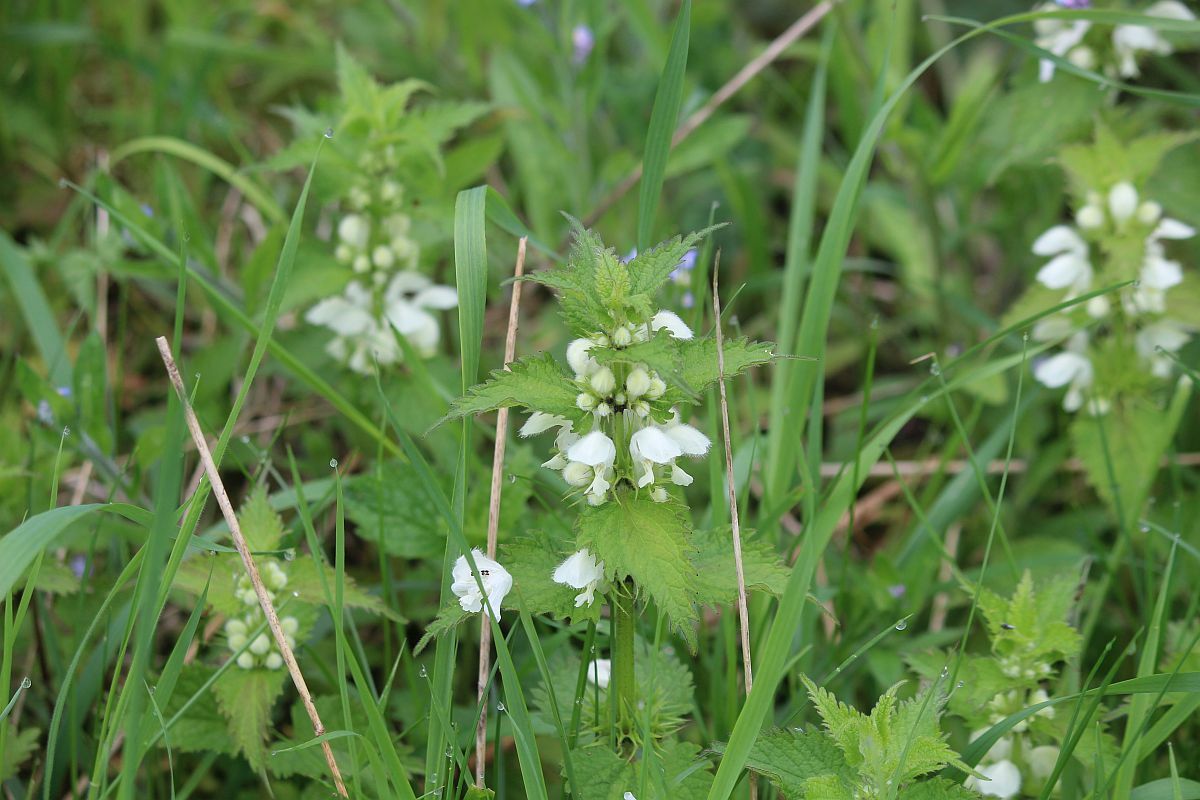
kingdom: Plantae
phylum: Tracheophyta
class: Magnoliopsida
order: Lamiales
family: Lamiaceae
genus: Lamium
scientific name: Lamium album
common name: White dead-nettle
